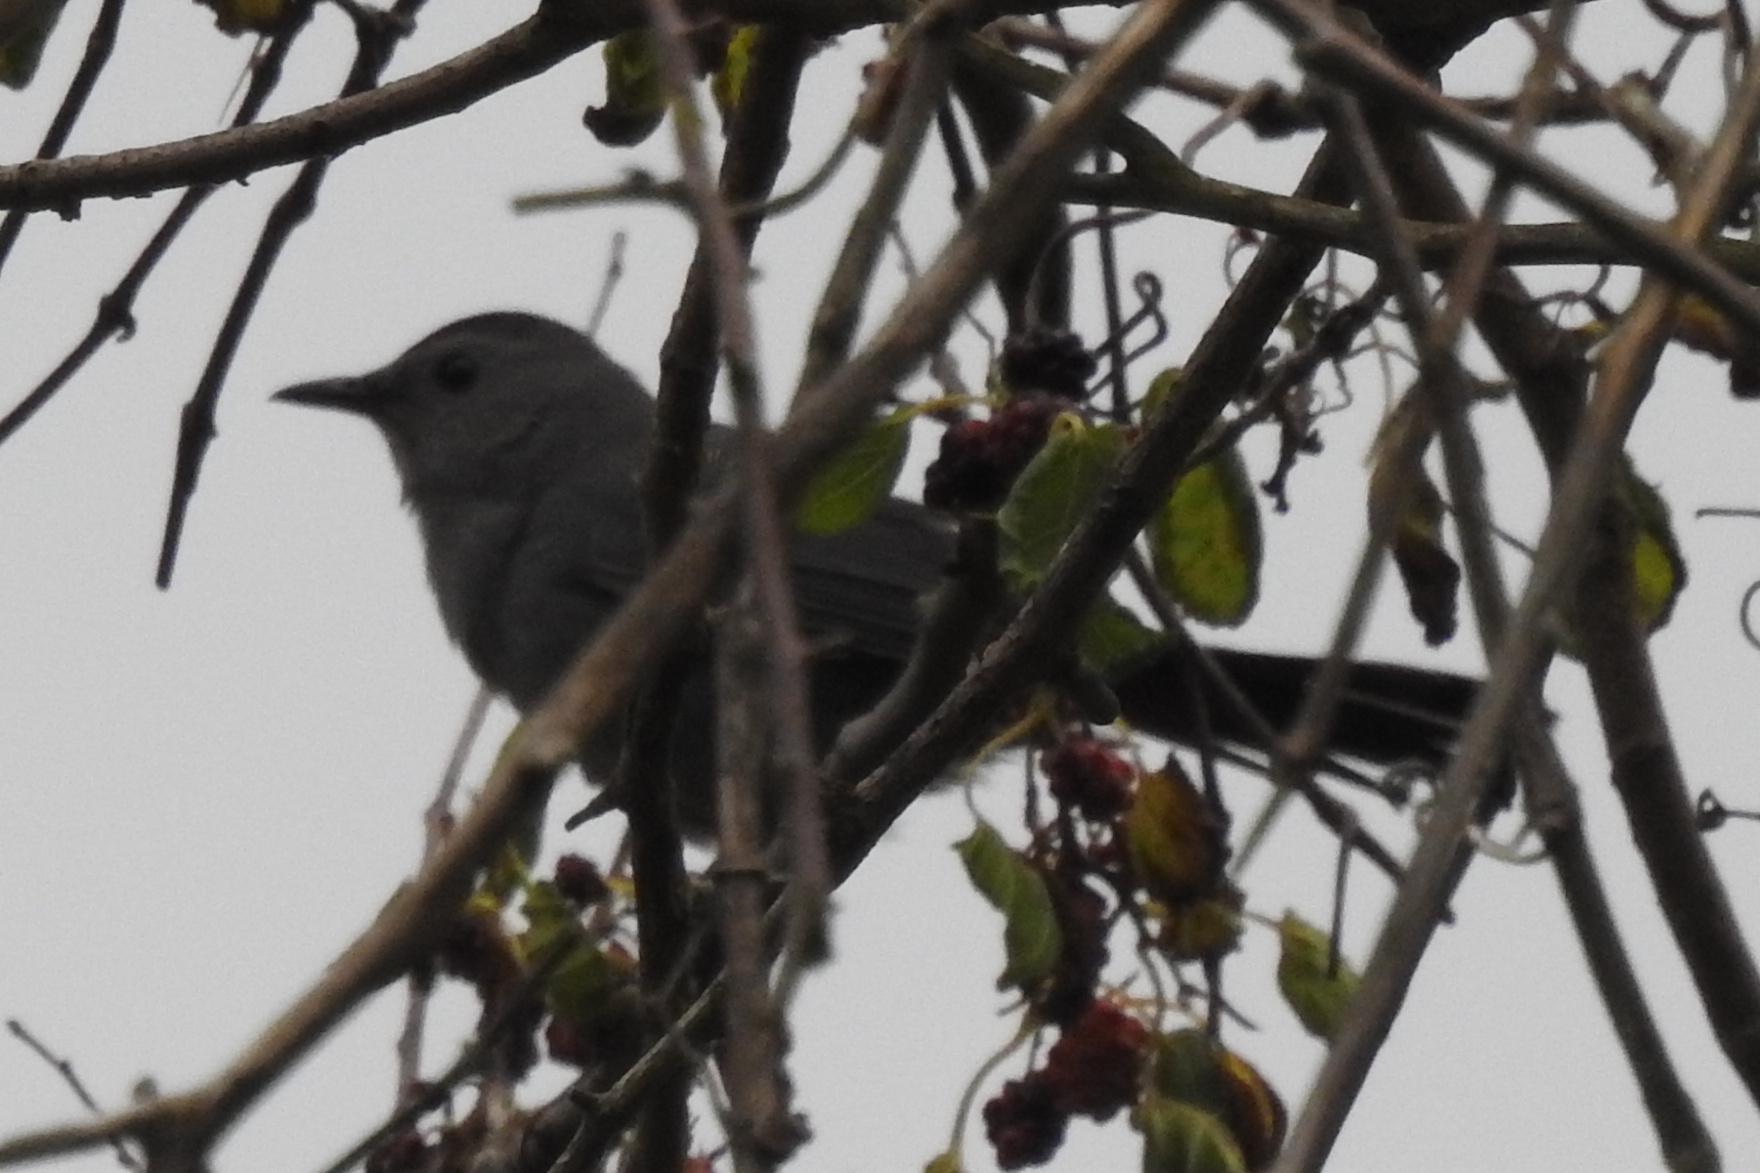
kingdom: Animalia
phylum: Chordata
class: Aves
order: Passeriformes
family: Mimidae
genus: Dumetella
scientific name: Dumetella carolinensis
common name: Gray catbird
